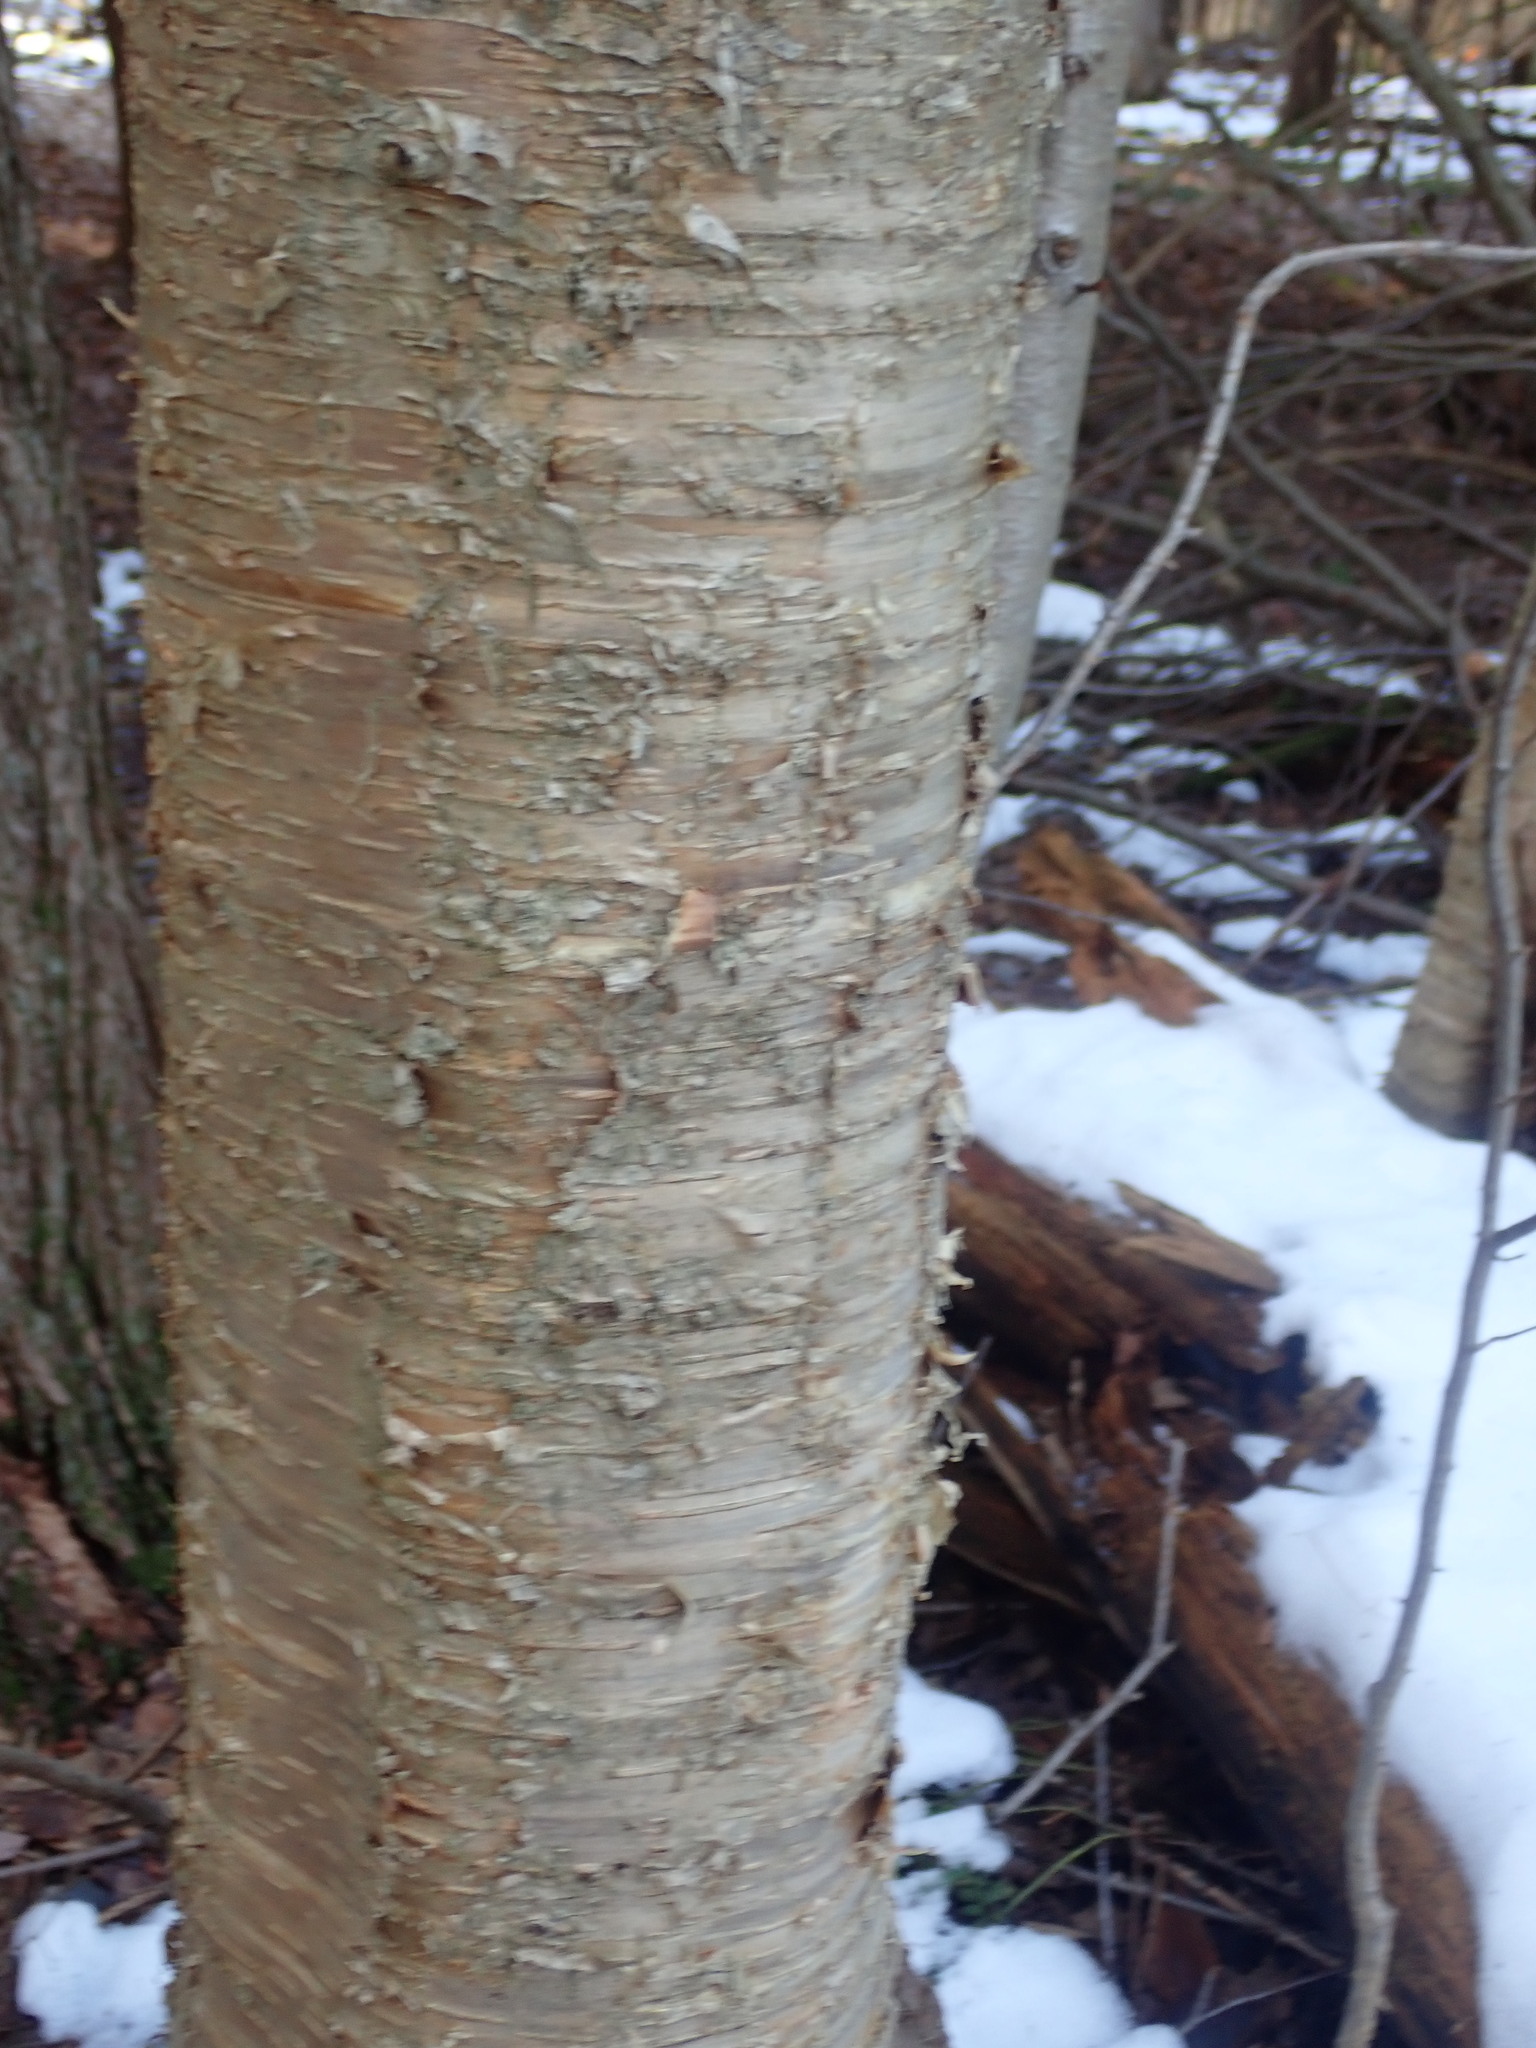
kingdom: Plantae
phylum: Tracheophyta
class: Magnoliopsida
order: Fagales
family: Betulaceae
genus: Betula
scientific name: Betula alleghaniensis
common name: Yellow birch
